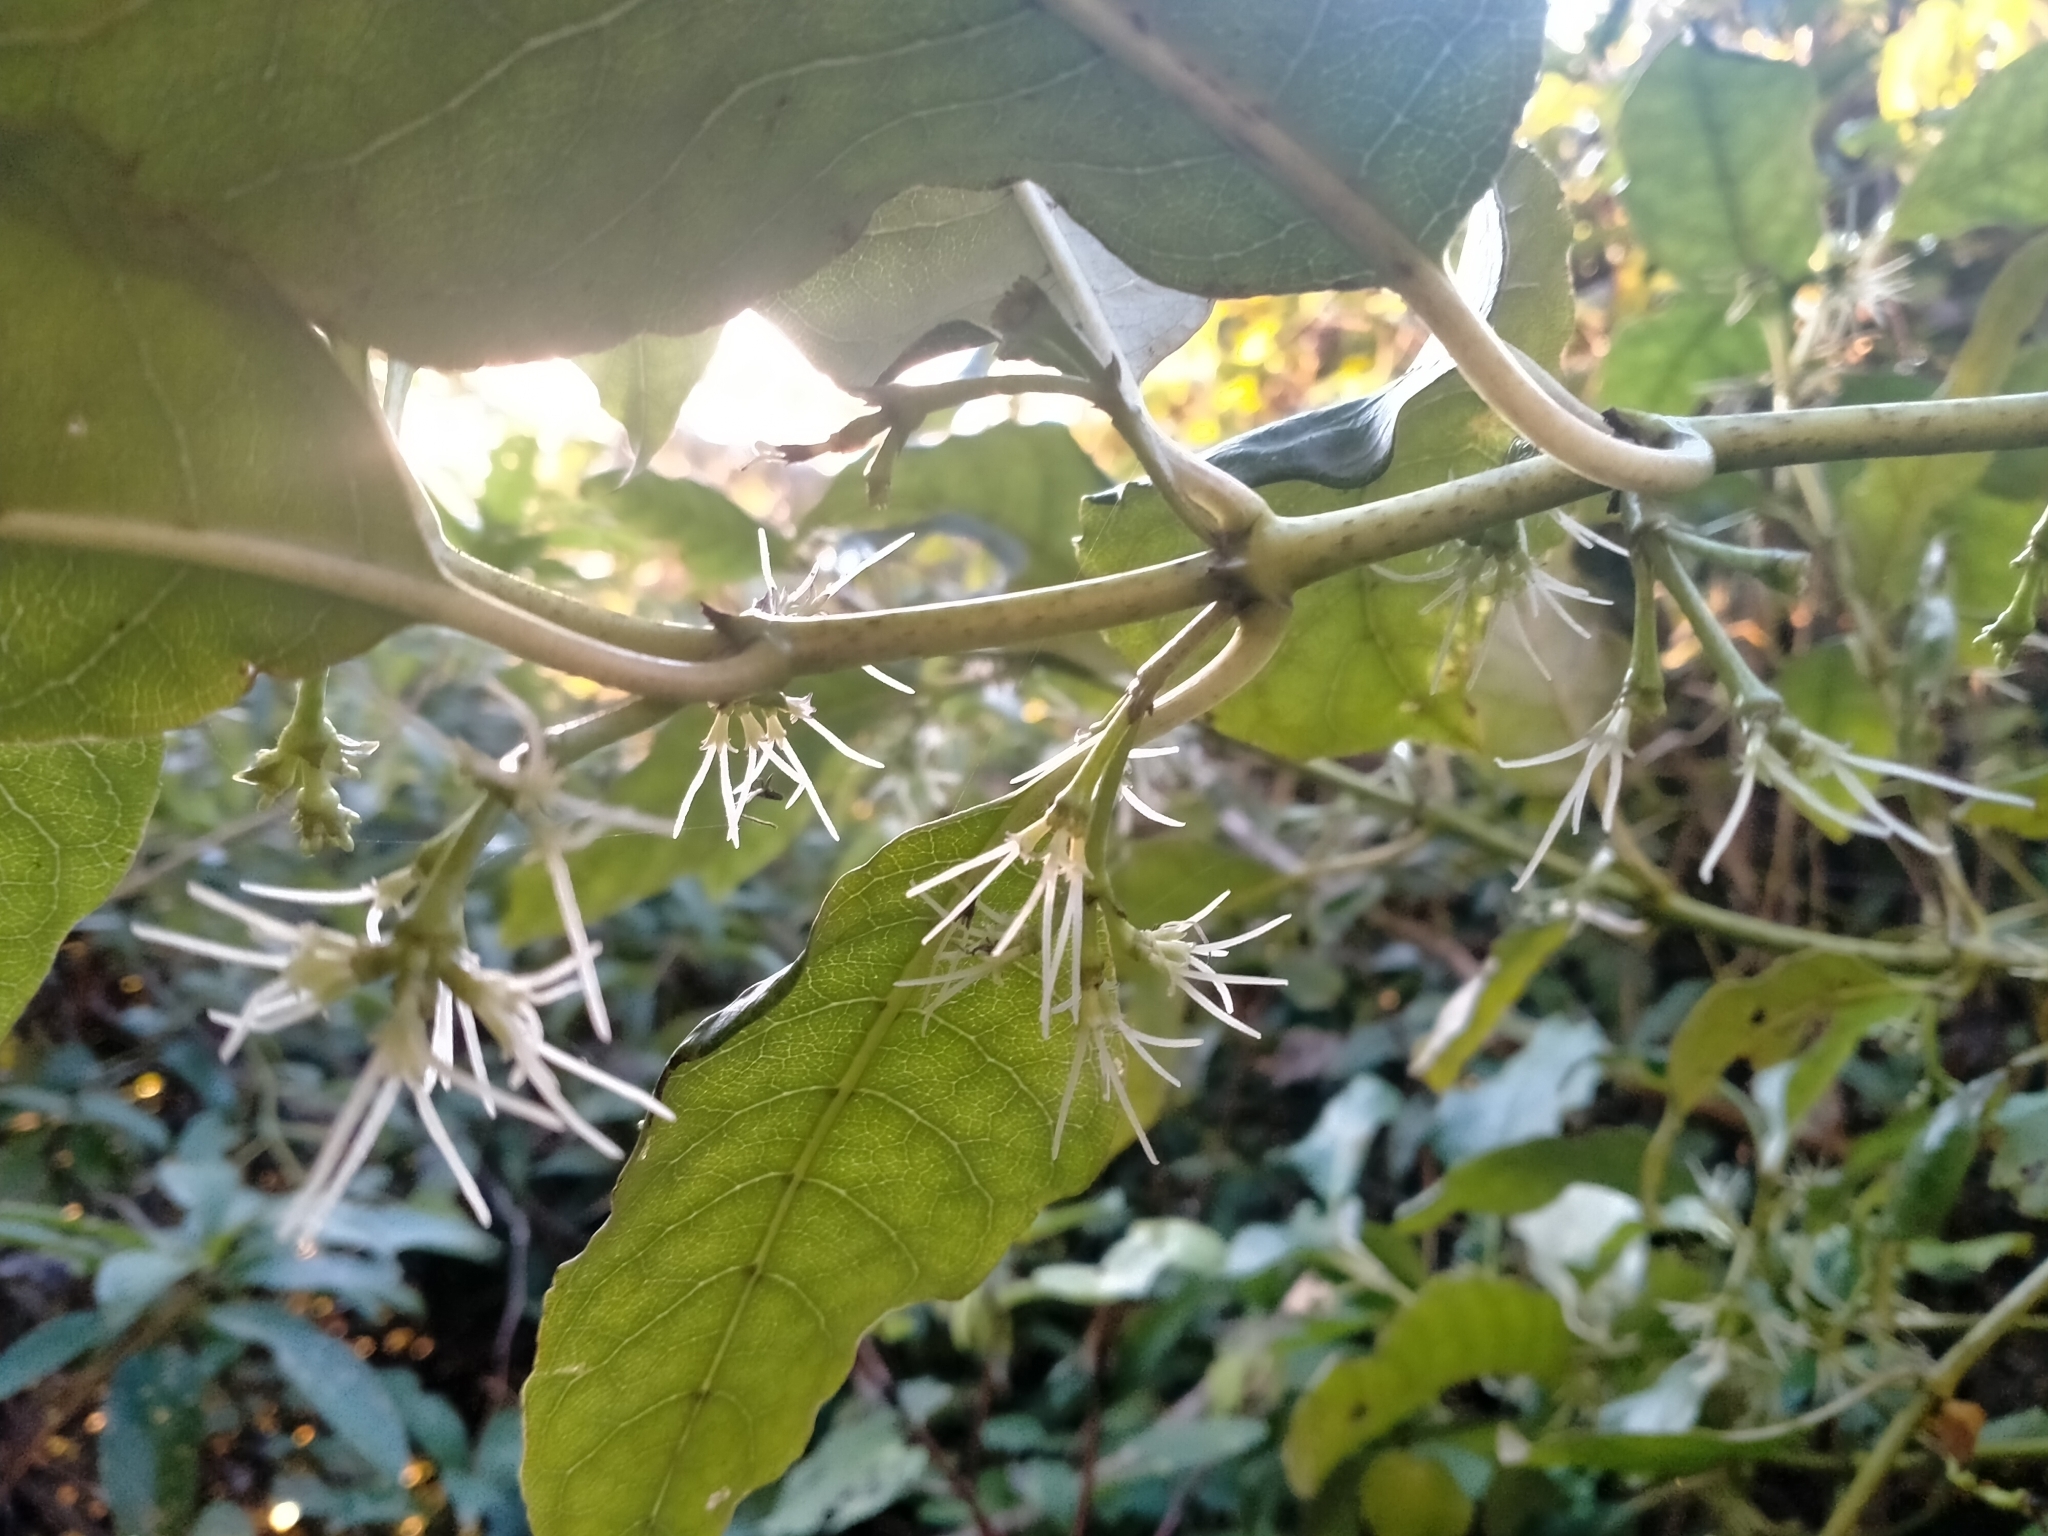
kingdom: Plantae
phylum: Tracheophyta
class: Magnoliopsida
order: Gentianales
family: Rubiaceae
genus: Coprosma
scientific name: Coprosma autumnalis
